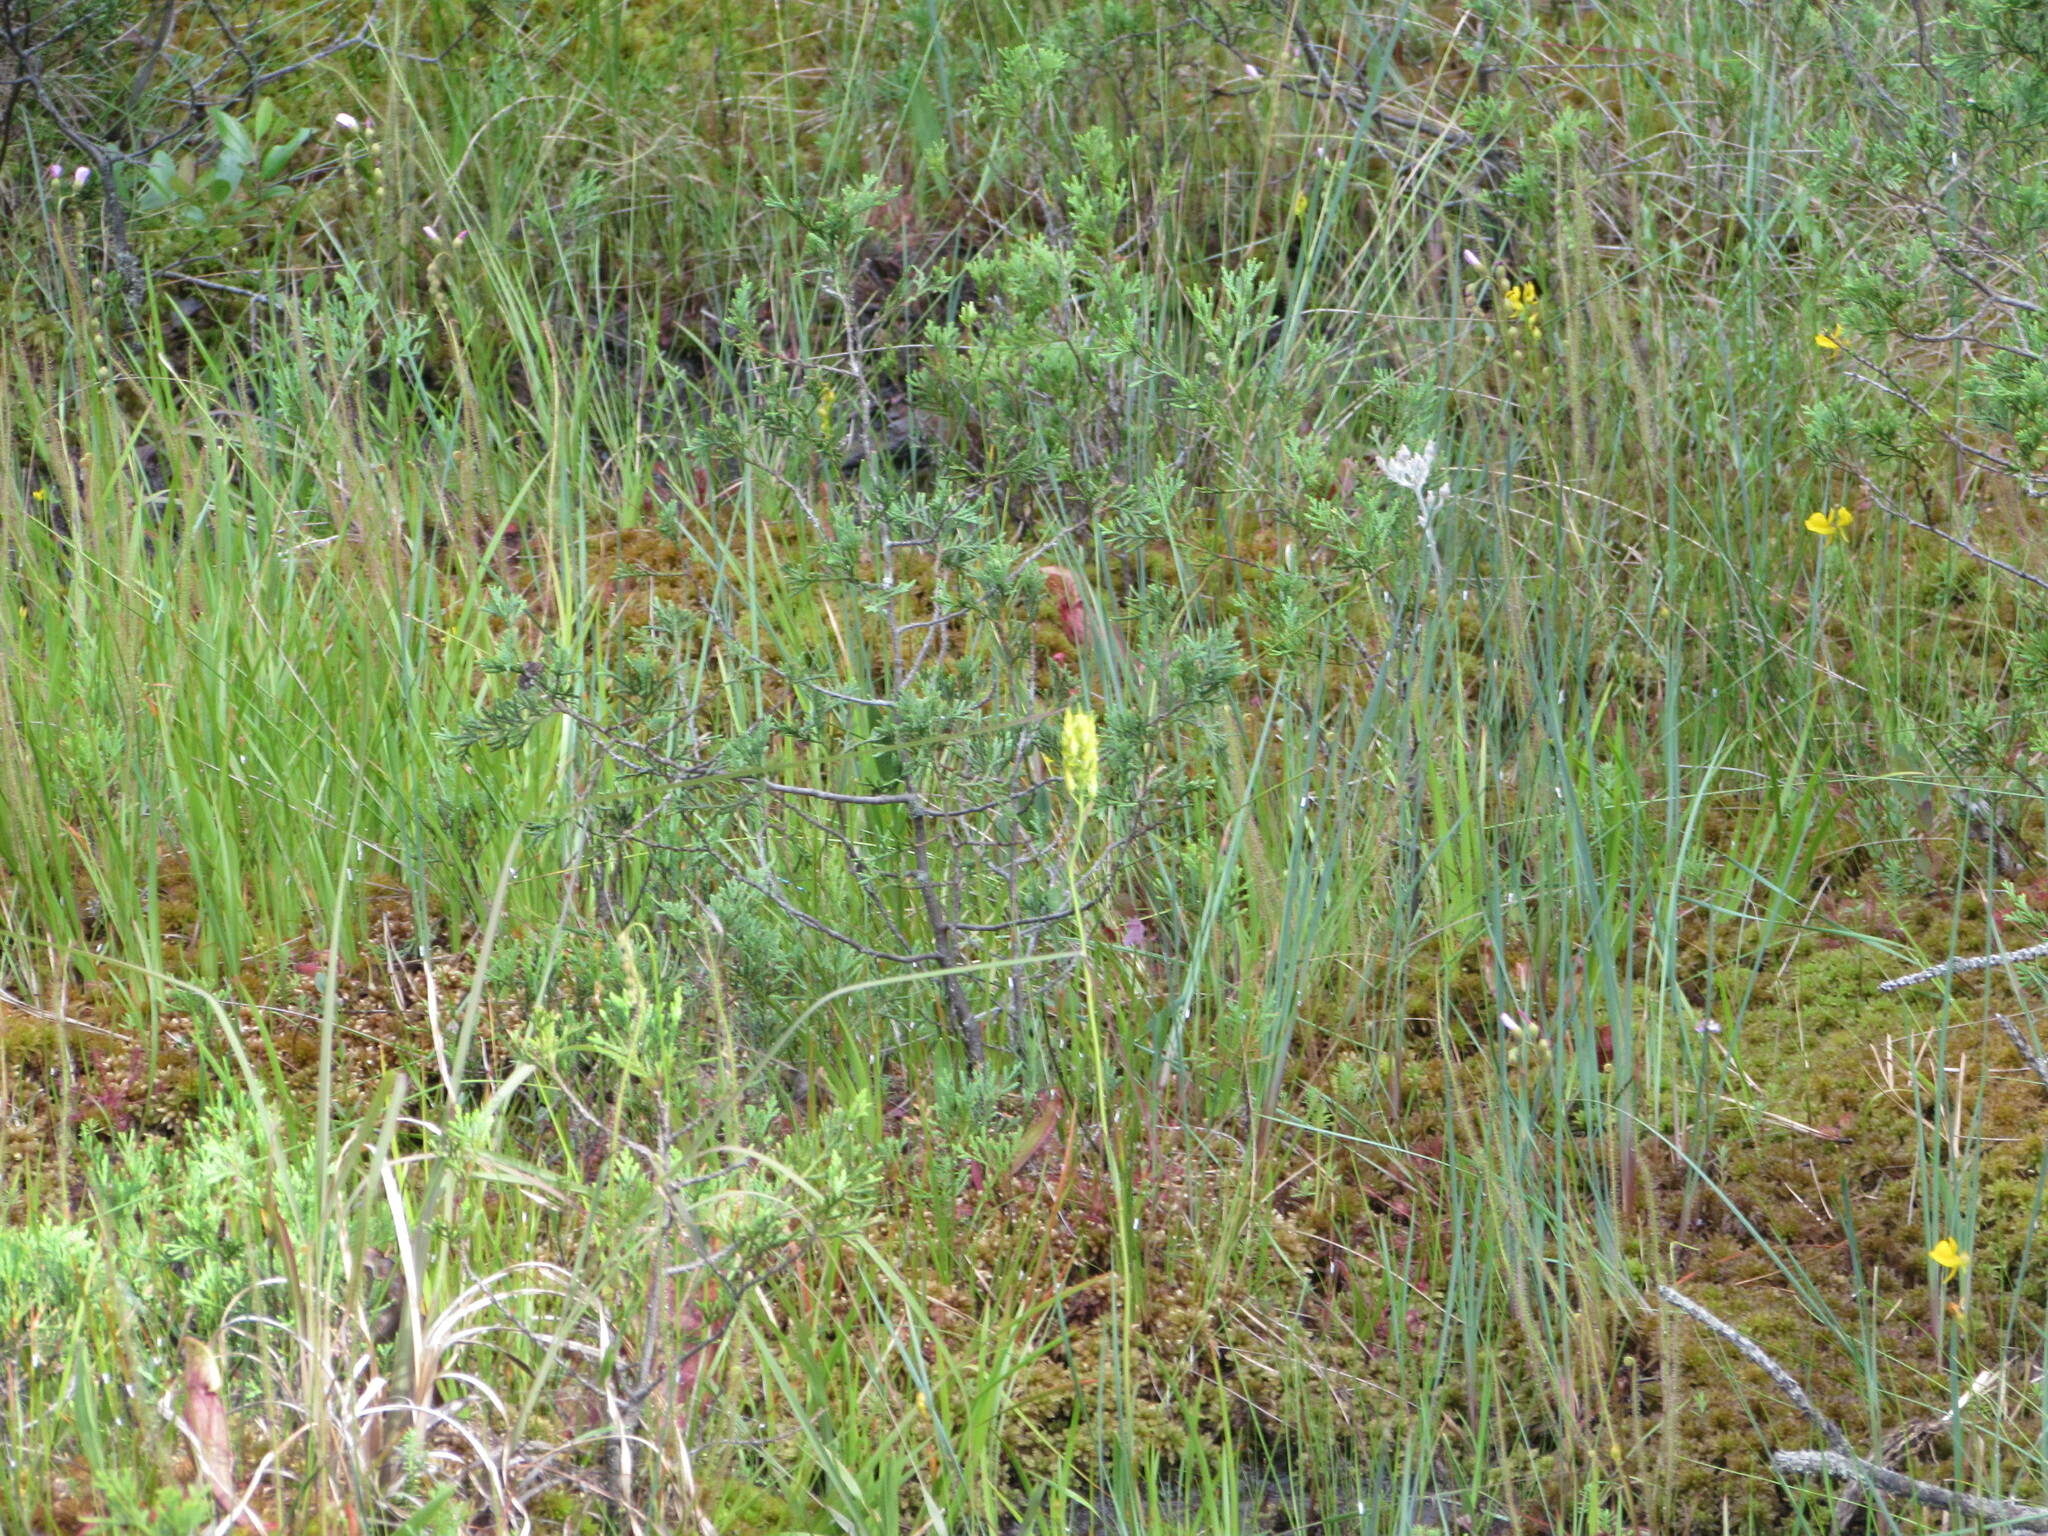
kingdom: Plantae
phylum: Tracheophyta
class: Liliopsida
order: Dioscoreales
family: Nartheciaceae
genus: Narthecium
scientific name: Narthecium americanum
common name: Bog-asphodel
